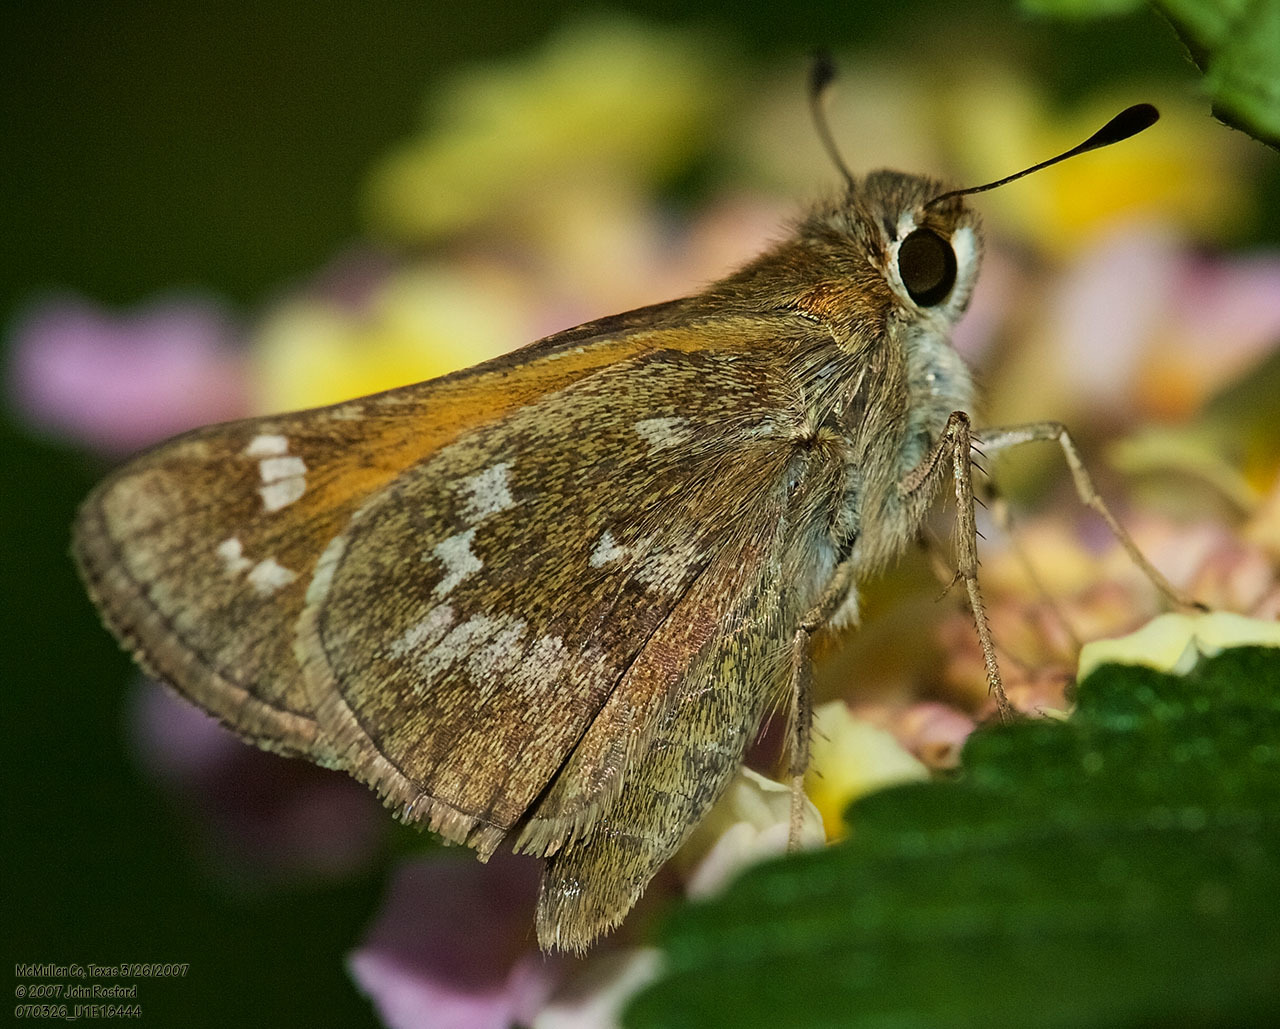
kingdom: Animalia
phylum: Arthropoda
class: Insecta
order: Lepidoptera
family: Hesperiidae
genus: Atalopedes
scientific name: Atalopedes
